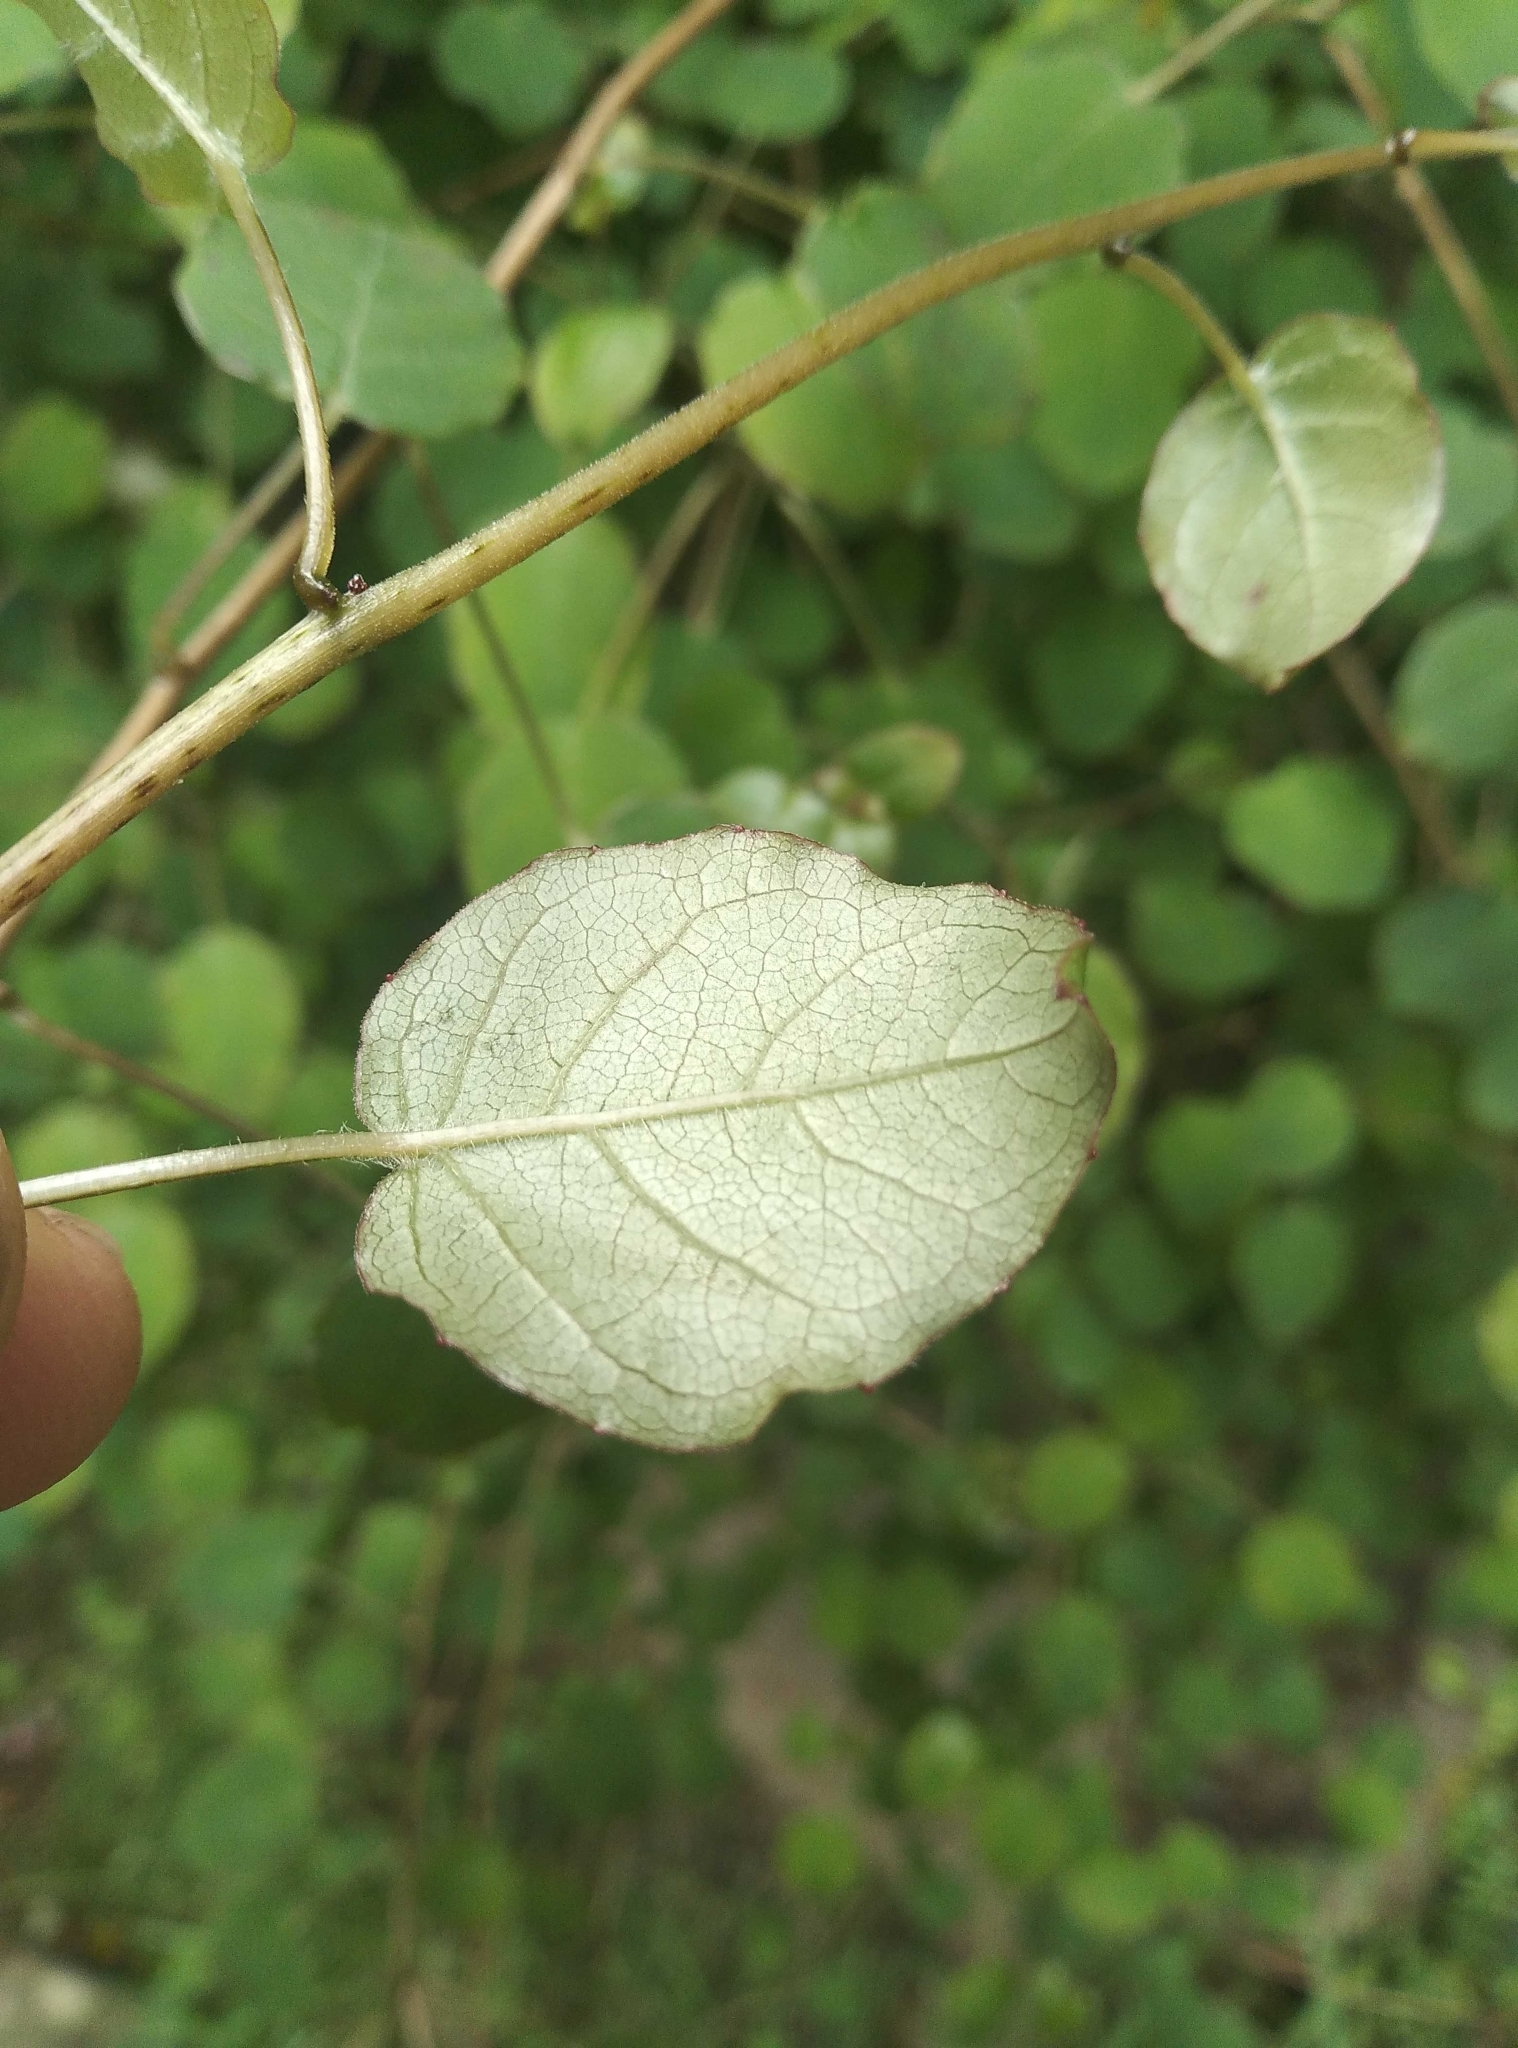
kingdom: Plantae
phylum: Tracheophyta
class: Magnoliopsida
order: Myrtales
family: Onagraceae
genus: Fuchsia
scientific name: Fuchsia perscandens
